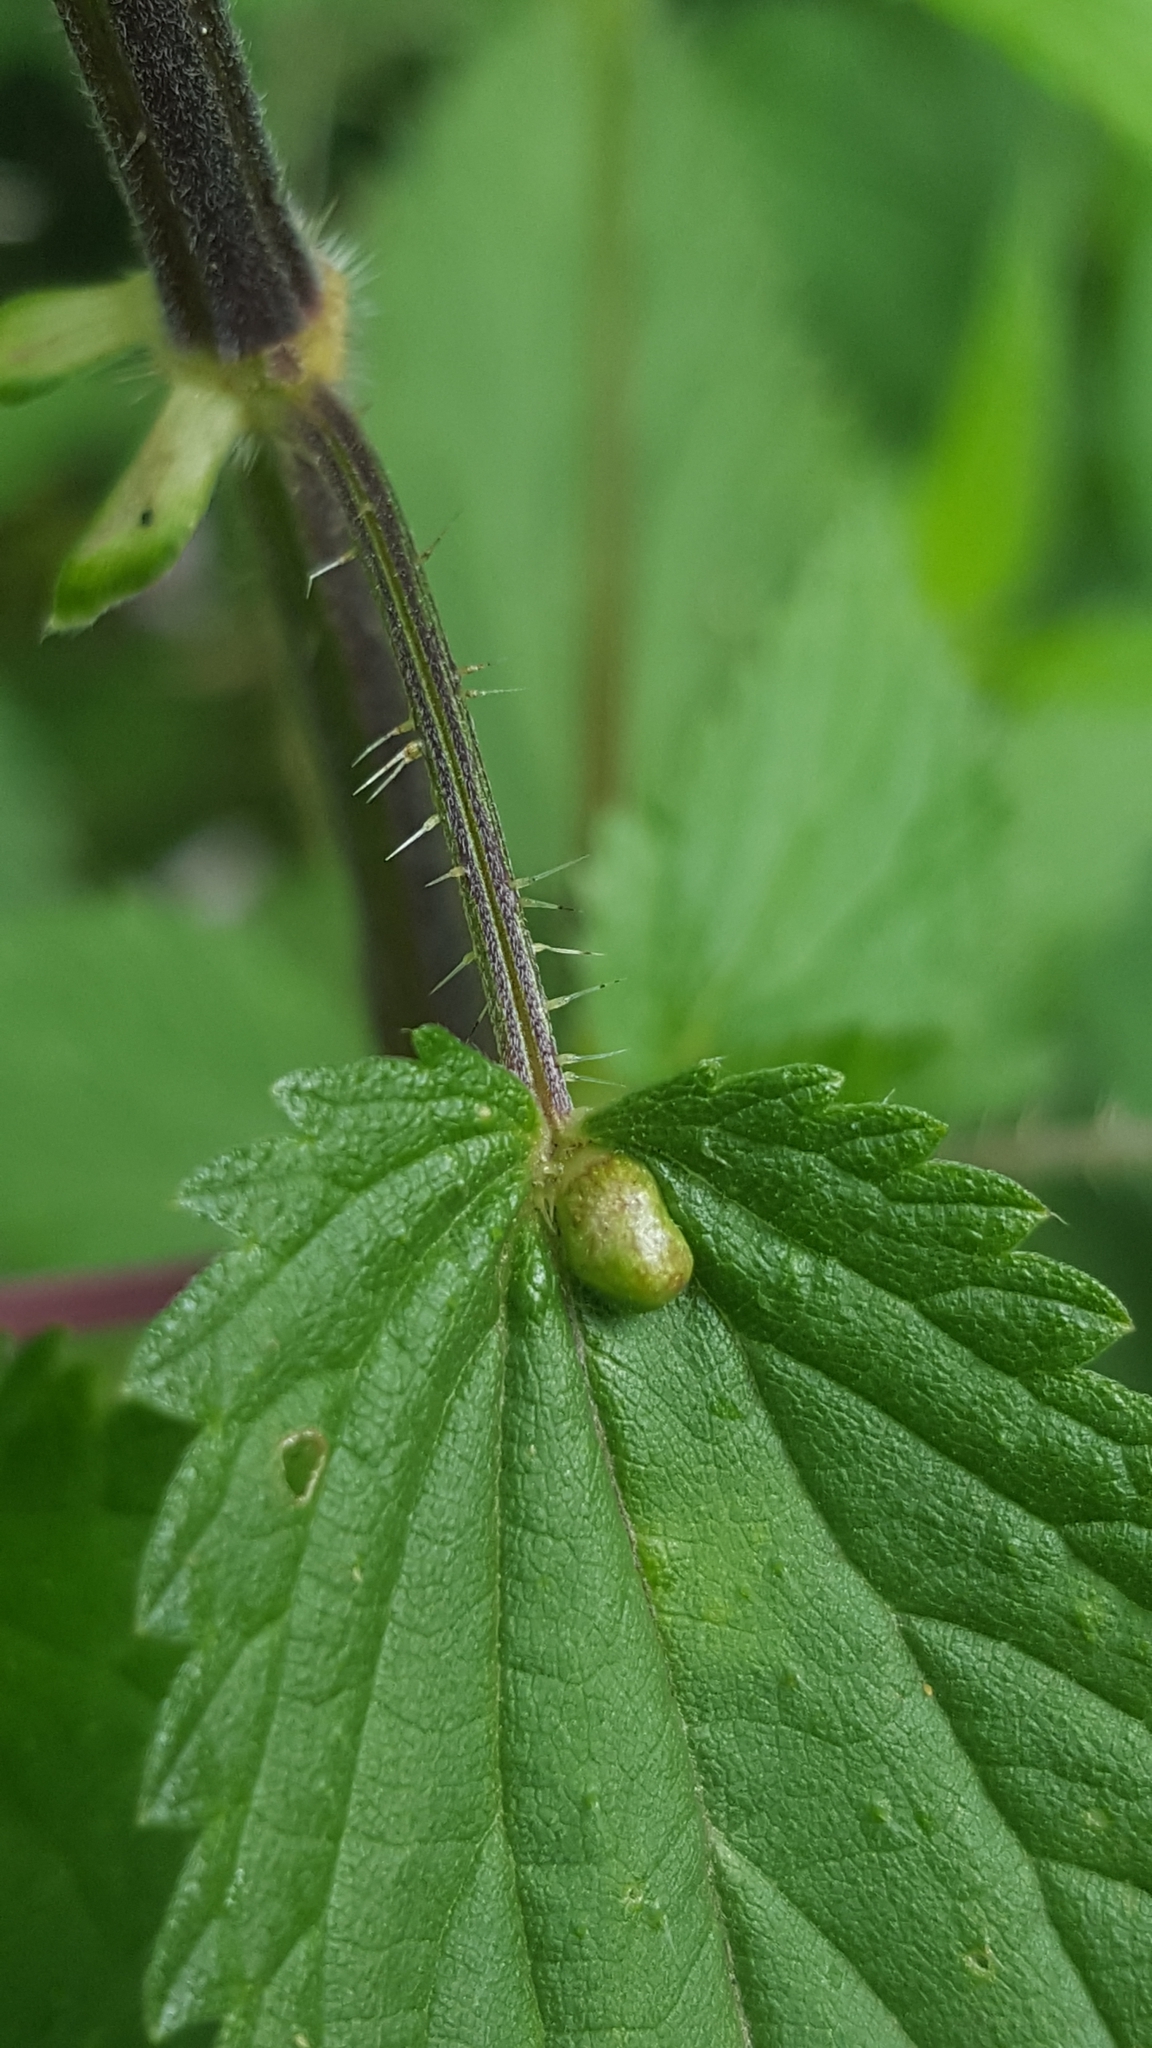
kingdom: Animalia
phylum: Arthropoda
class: Insecta
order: Diptera
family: Cecidomyiidae
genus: Dasineura
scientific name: Dasineura urticae
